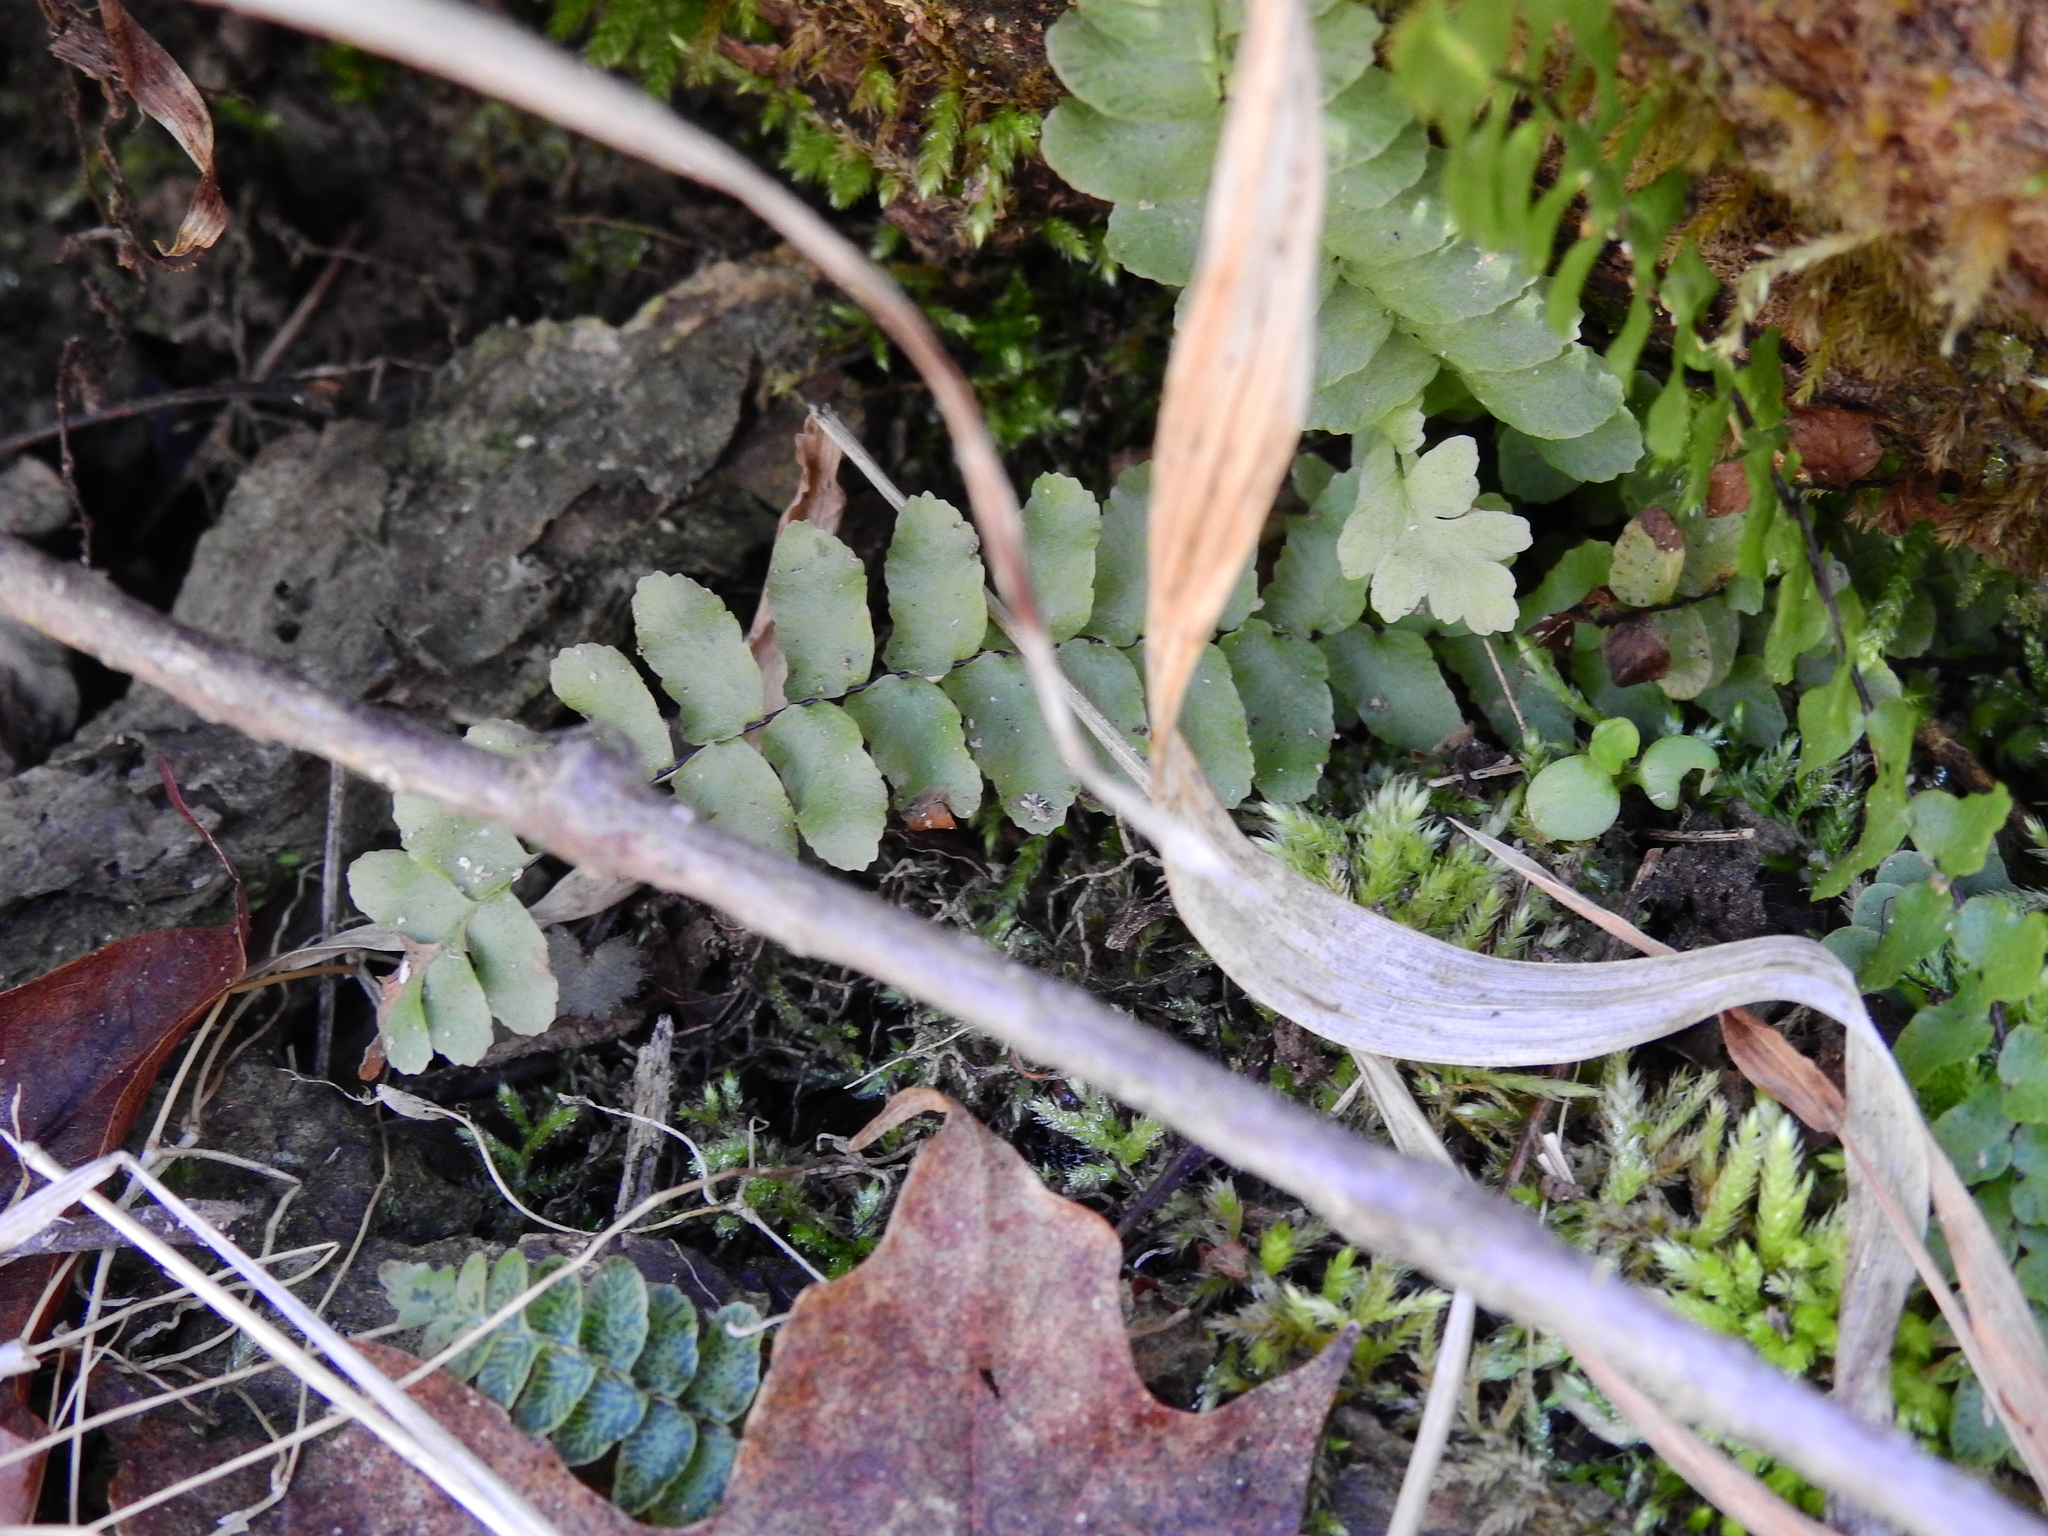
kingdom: Plantae
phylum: Tracheophyta
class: Polypodiopsida
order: Polypodiales
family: Aspleniaceae
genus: Asplenium
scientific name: Asplenium platyneuron
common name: Ebony spleenwort
